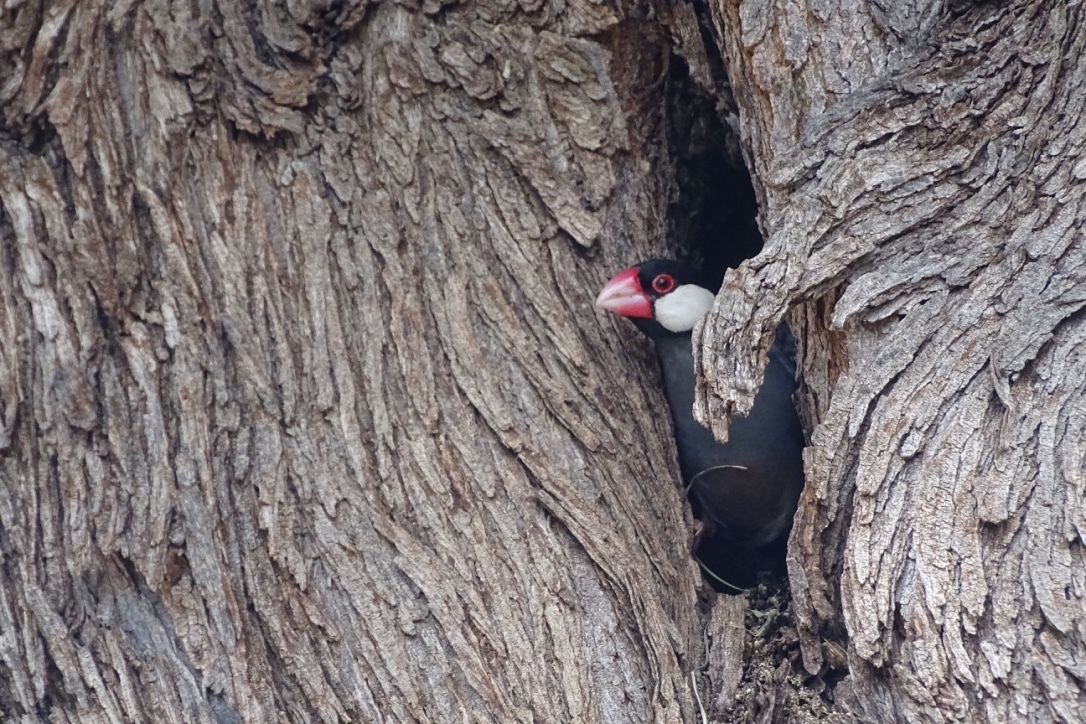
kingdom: Animalia
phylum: Chordata
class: Aves
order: Passeriformes
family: Estrildidae
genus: Lonchura
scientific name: Lonchura oryzivora
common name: Java sparrow
